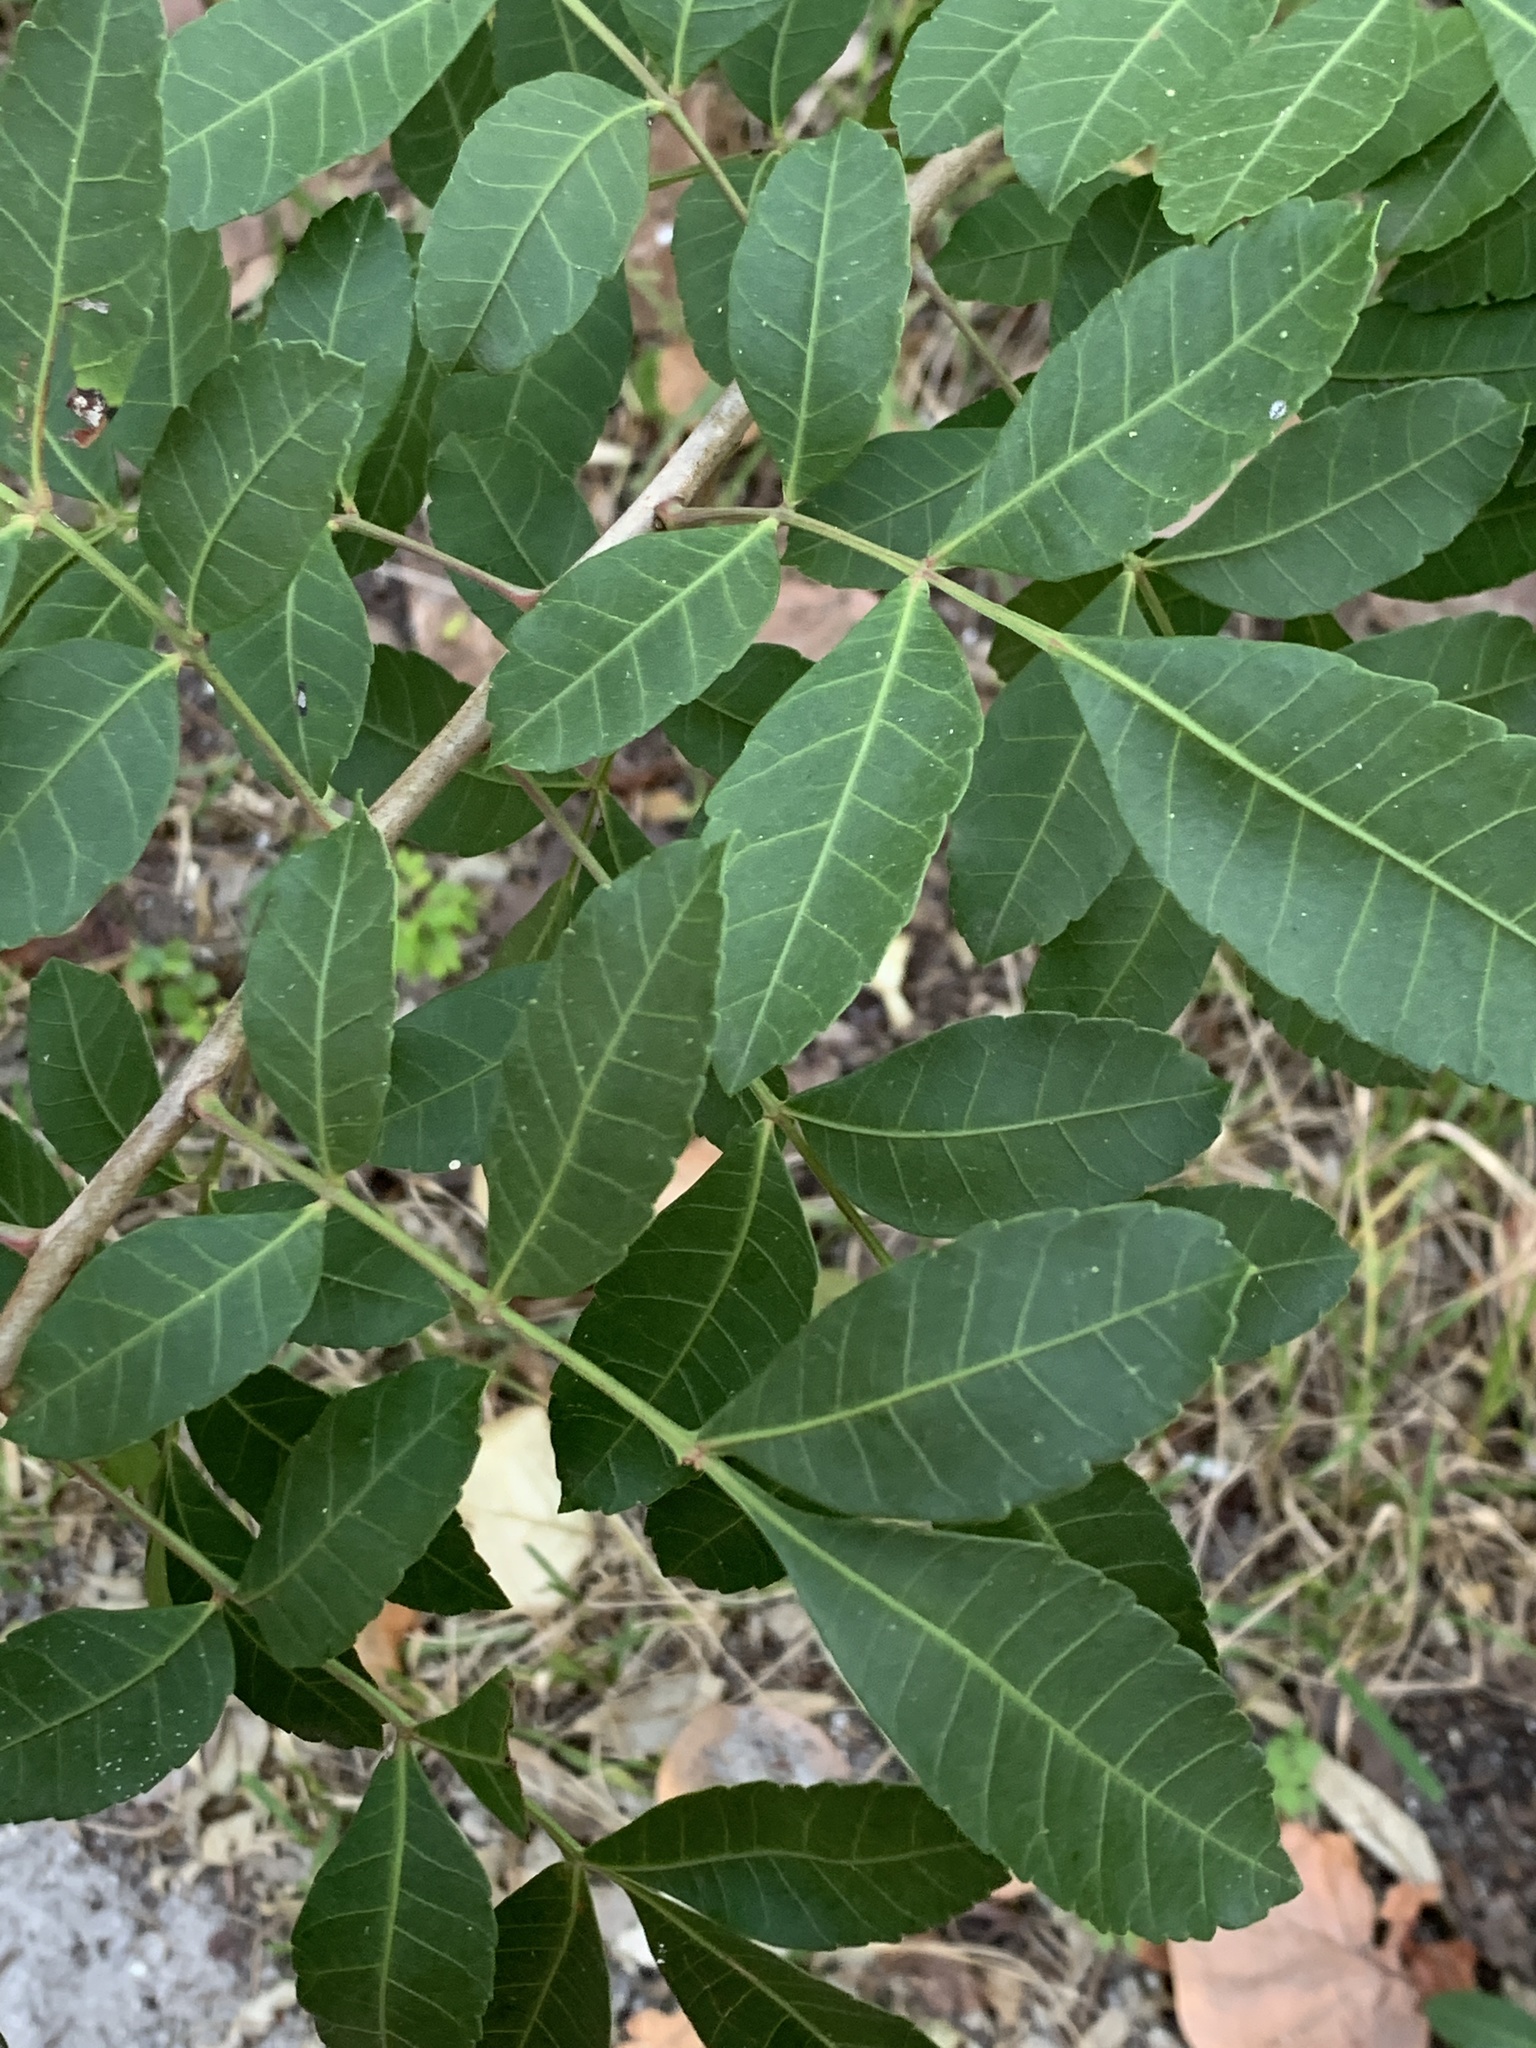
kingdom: Plantae
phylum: Tracheophyta
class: Magnoliopsida
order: Sapindales
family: Anacardiaceae
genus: Schinus
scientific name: Schinus terebinthifolia
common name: Brazilian peppertree
